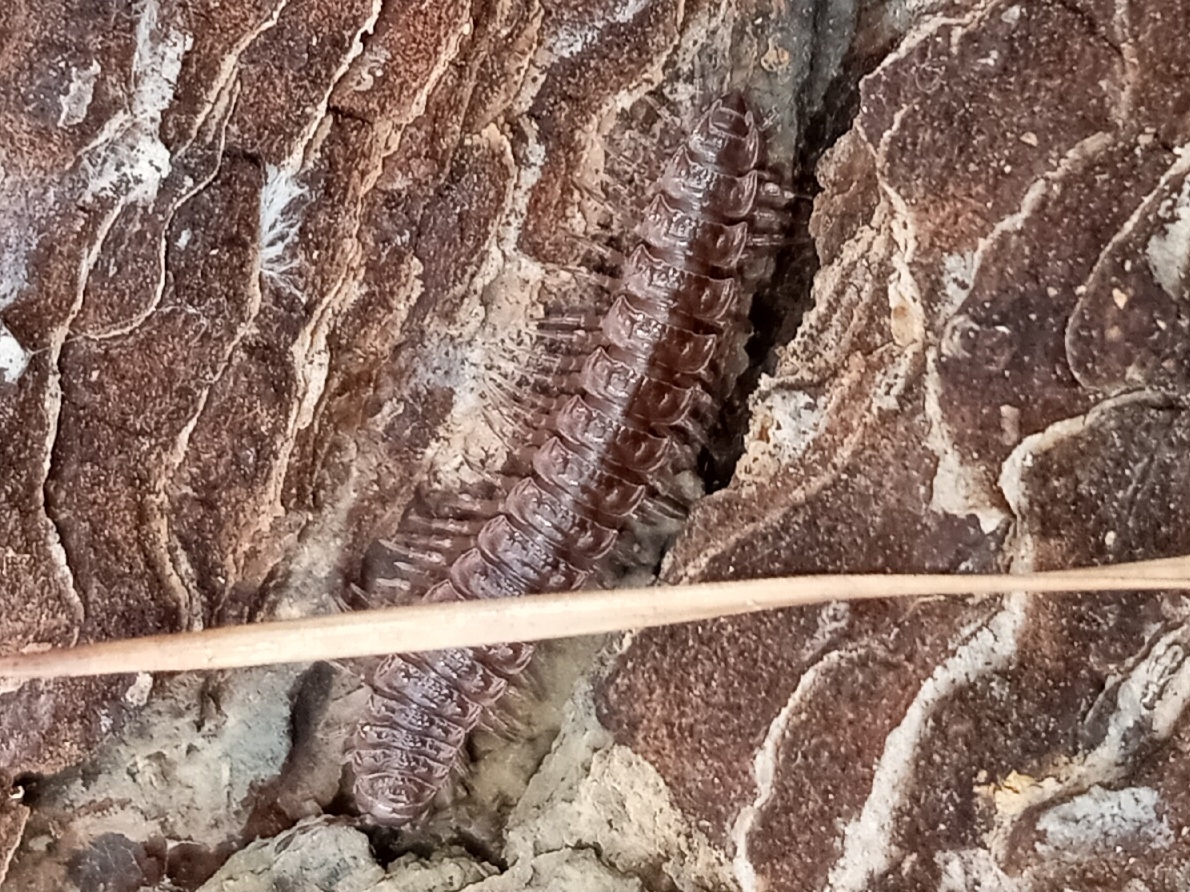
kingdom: Animalia
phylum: Arthropoda
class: Diplopoda
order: Polydesmida
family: Polydesmidae
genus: Pseudopolydesmus
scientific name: Pseudopolydesmus serratus
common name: Common pink flat-back millipede
